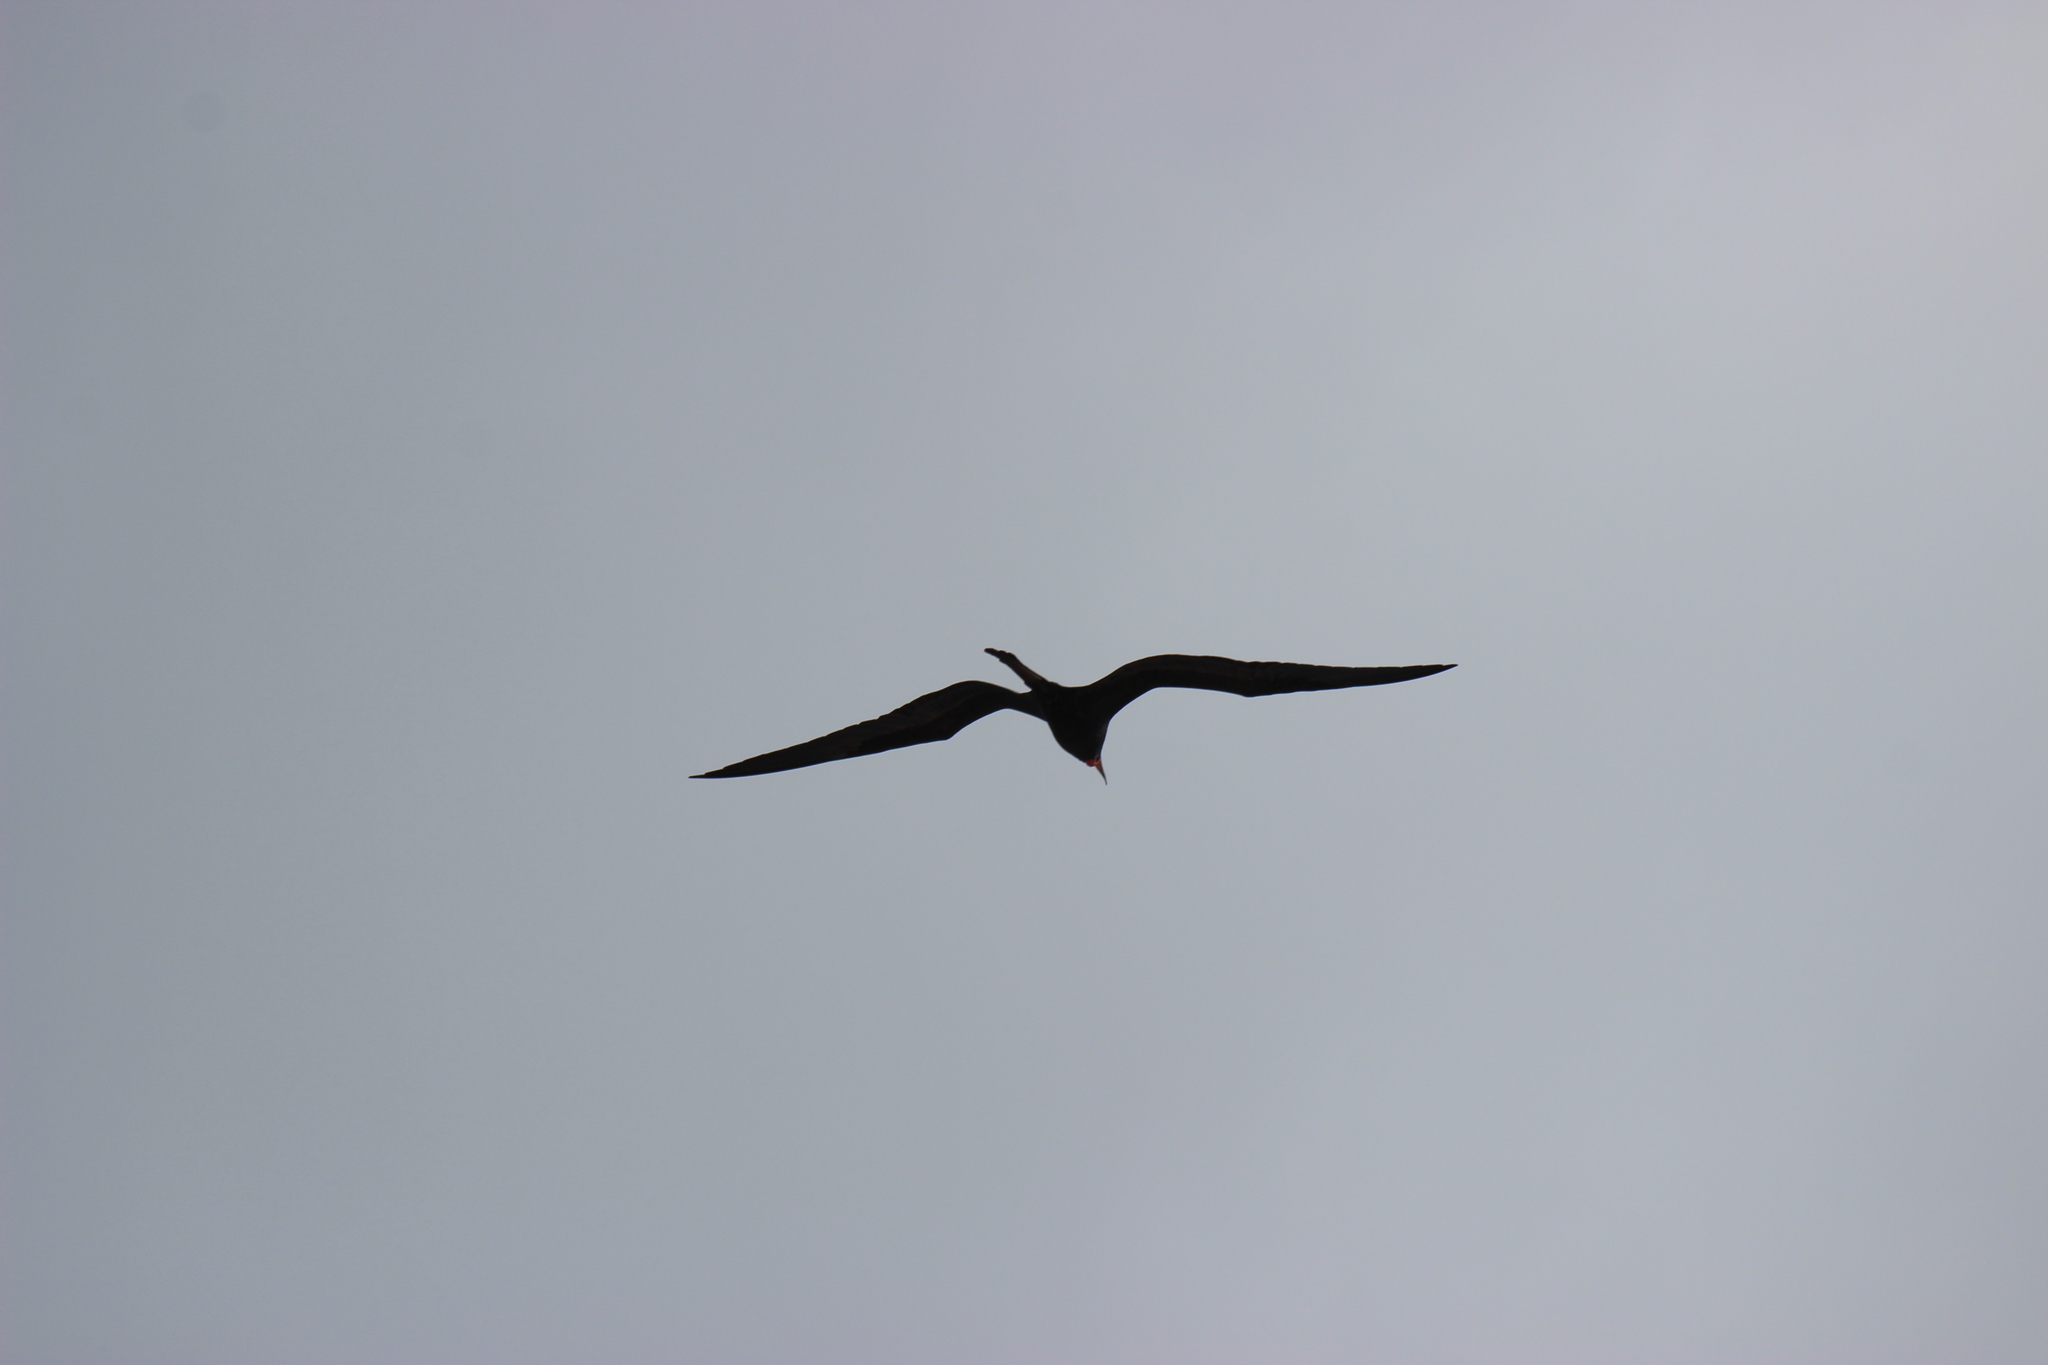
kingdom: Animalia
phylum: Chordata
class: Aves
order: Suliformes
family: Fregatidae
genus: Fregata
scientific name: Fregata magnificens
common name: Magnificent frigatebird
